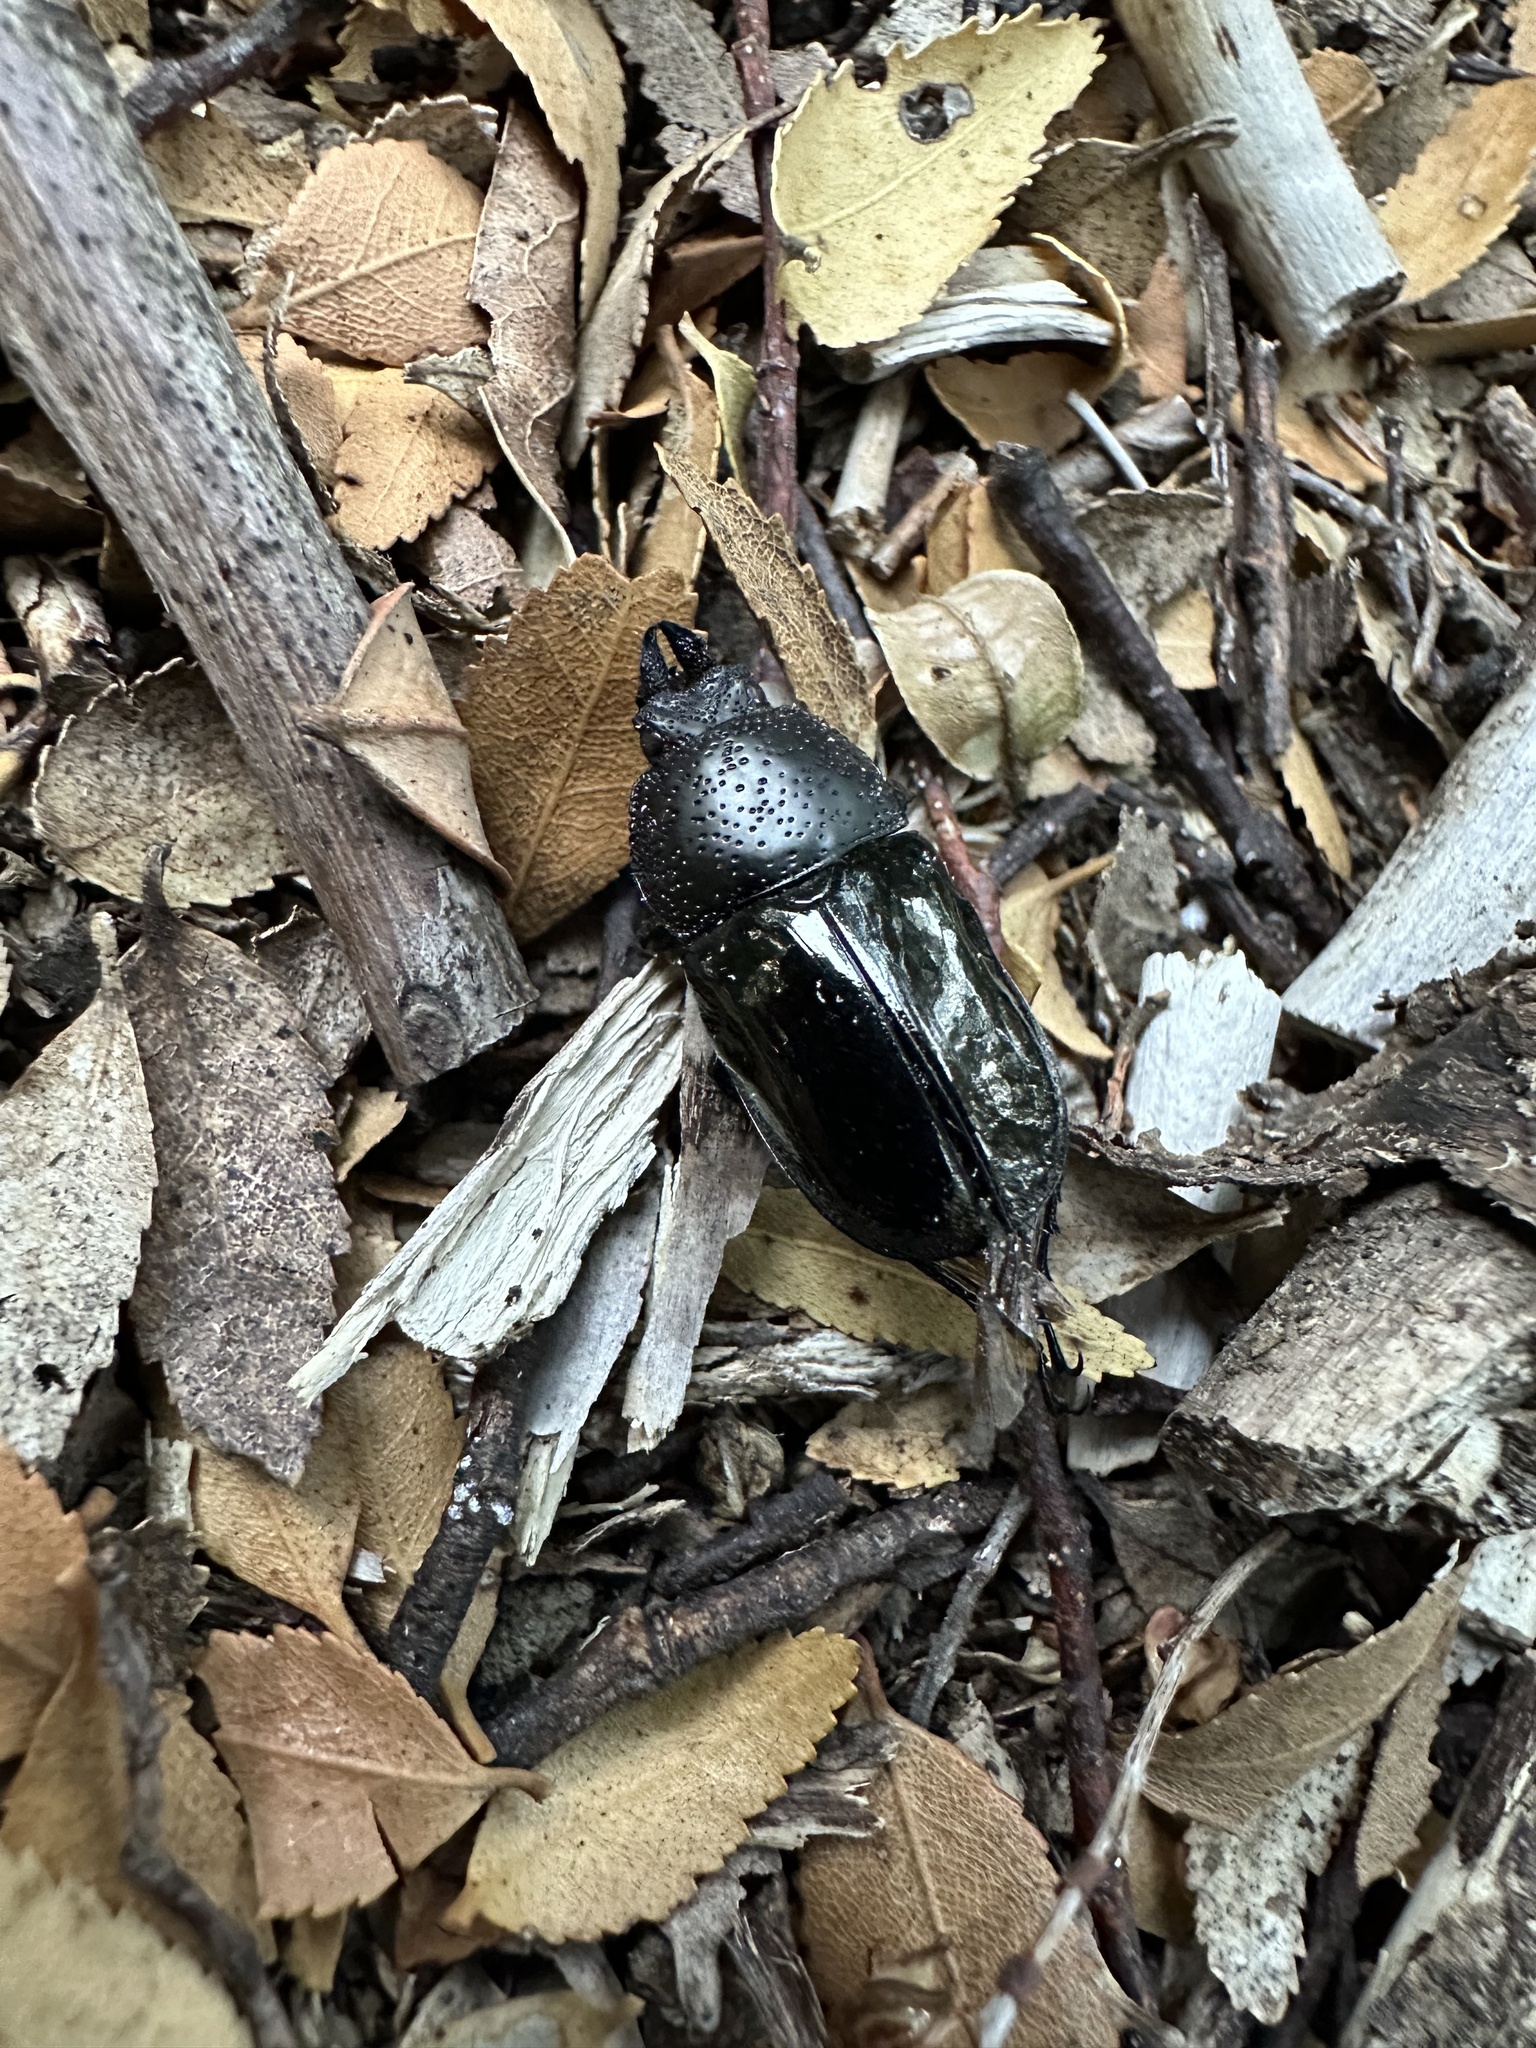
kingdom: Animalia
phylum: Arthropoda
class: Insecta
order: Coleoptera
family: Lucanidae
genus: Streptocerus
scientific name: Streptocerus speciosus
